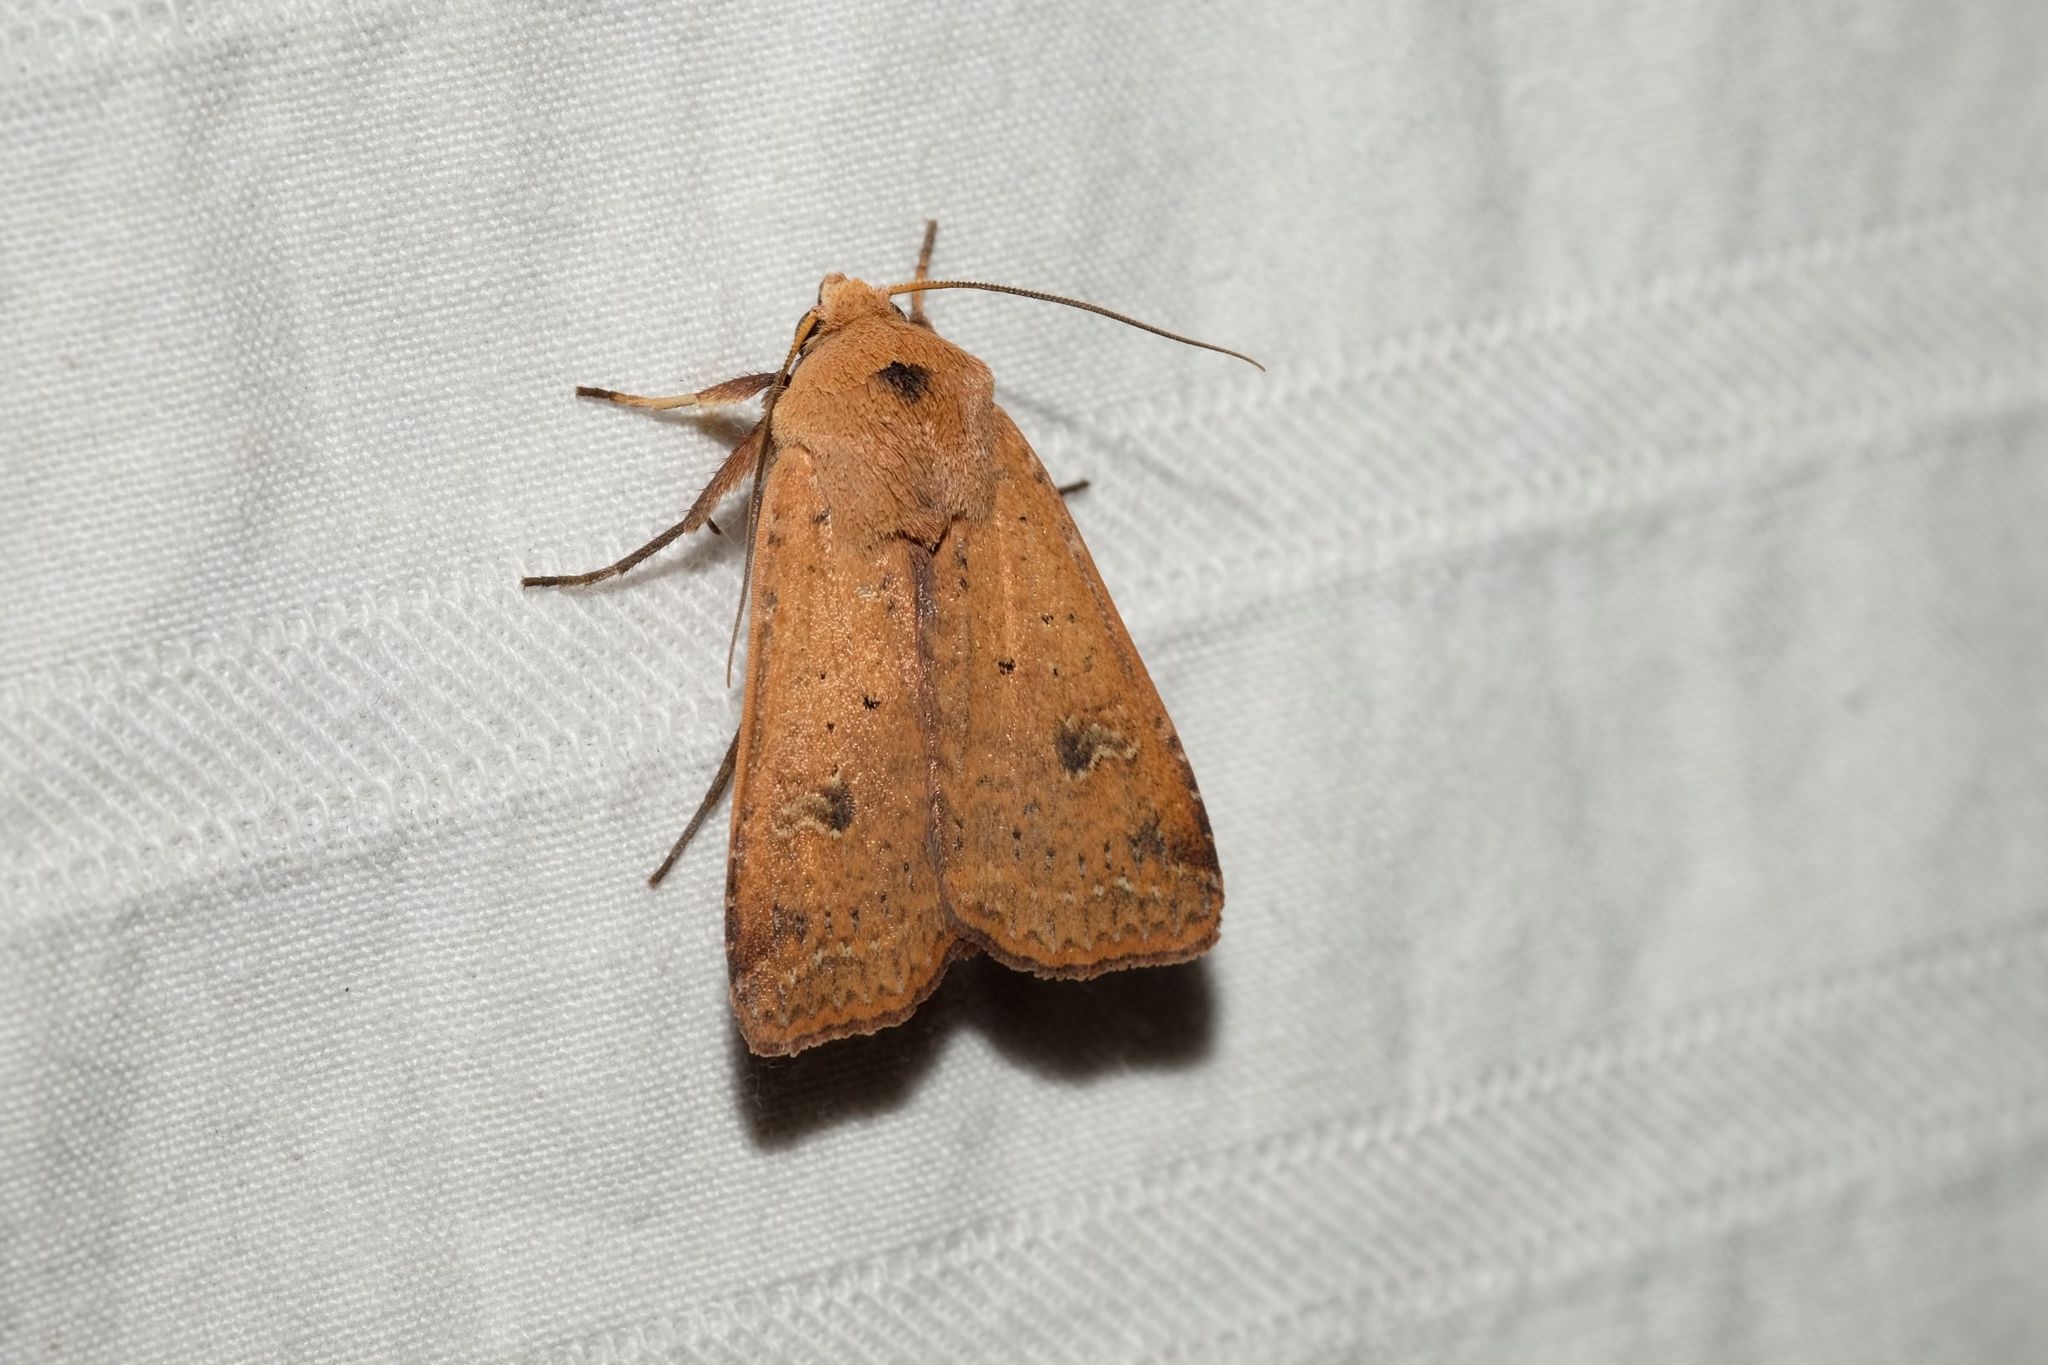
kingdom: Animalia
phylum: Arthropoda
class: Insecta
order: Lepidoptera
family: Noctuidae
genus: Diarsia
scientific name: Diarsia intermixta
